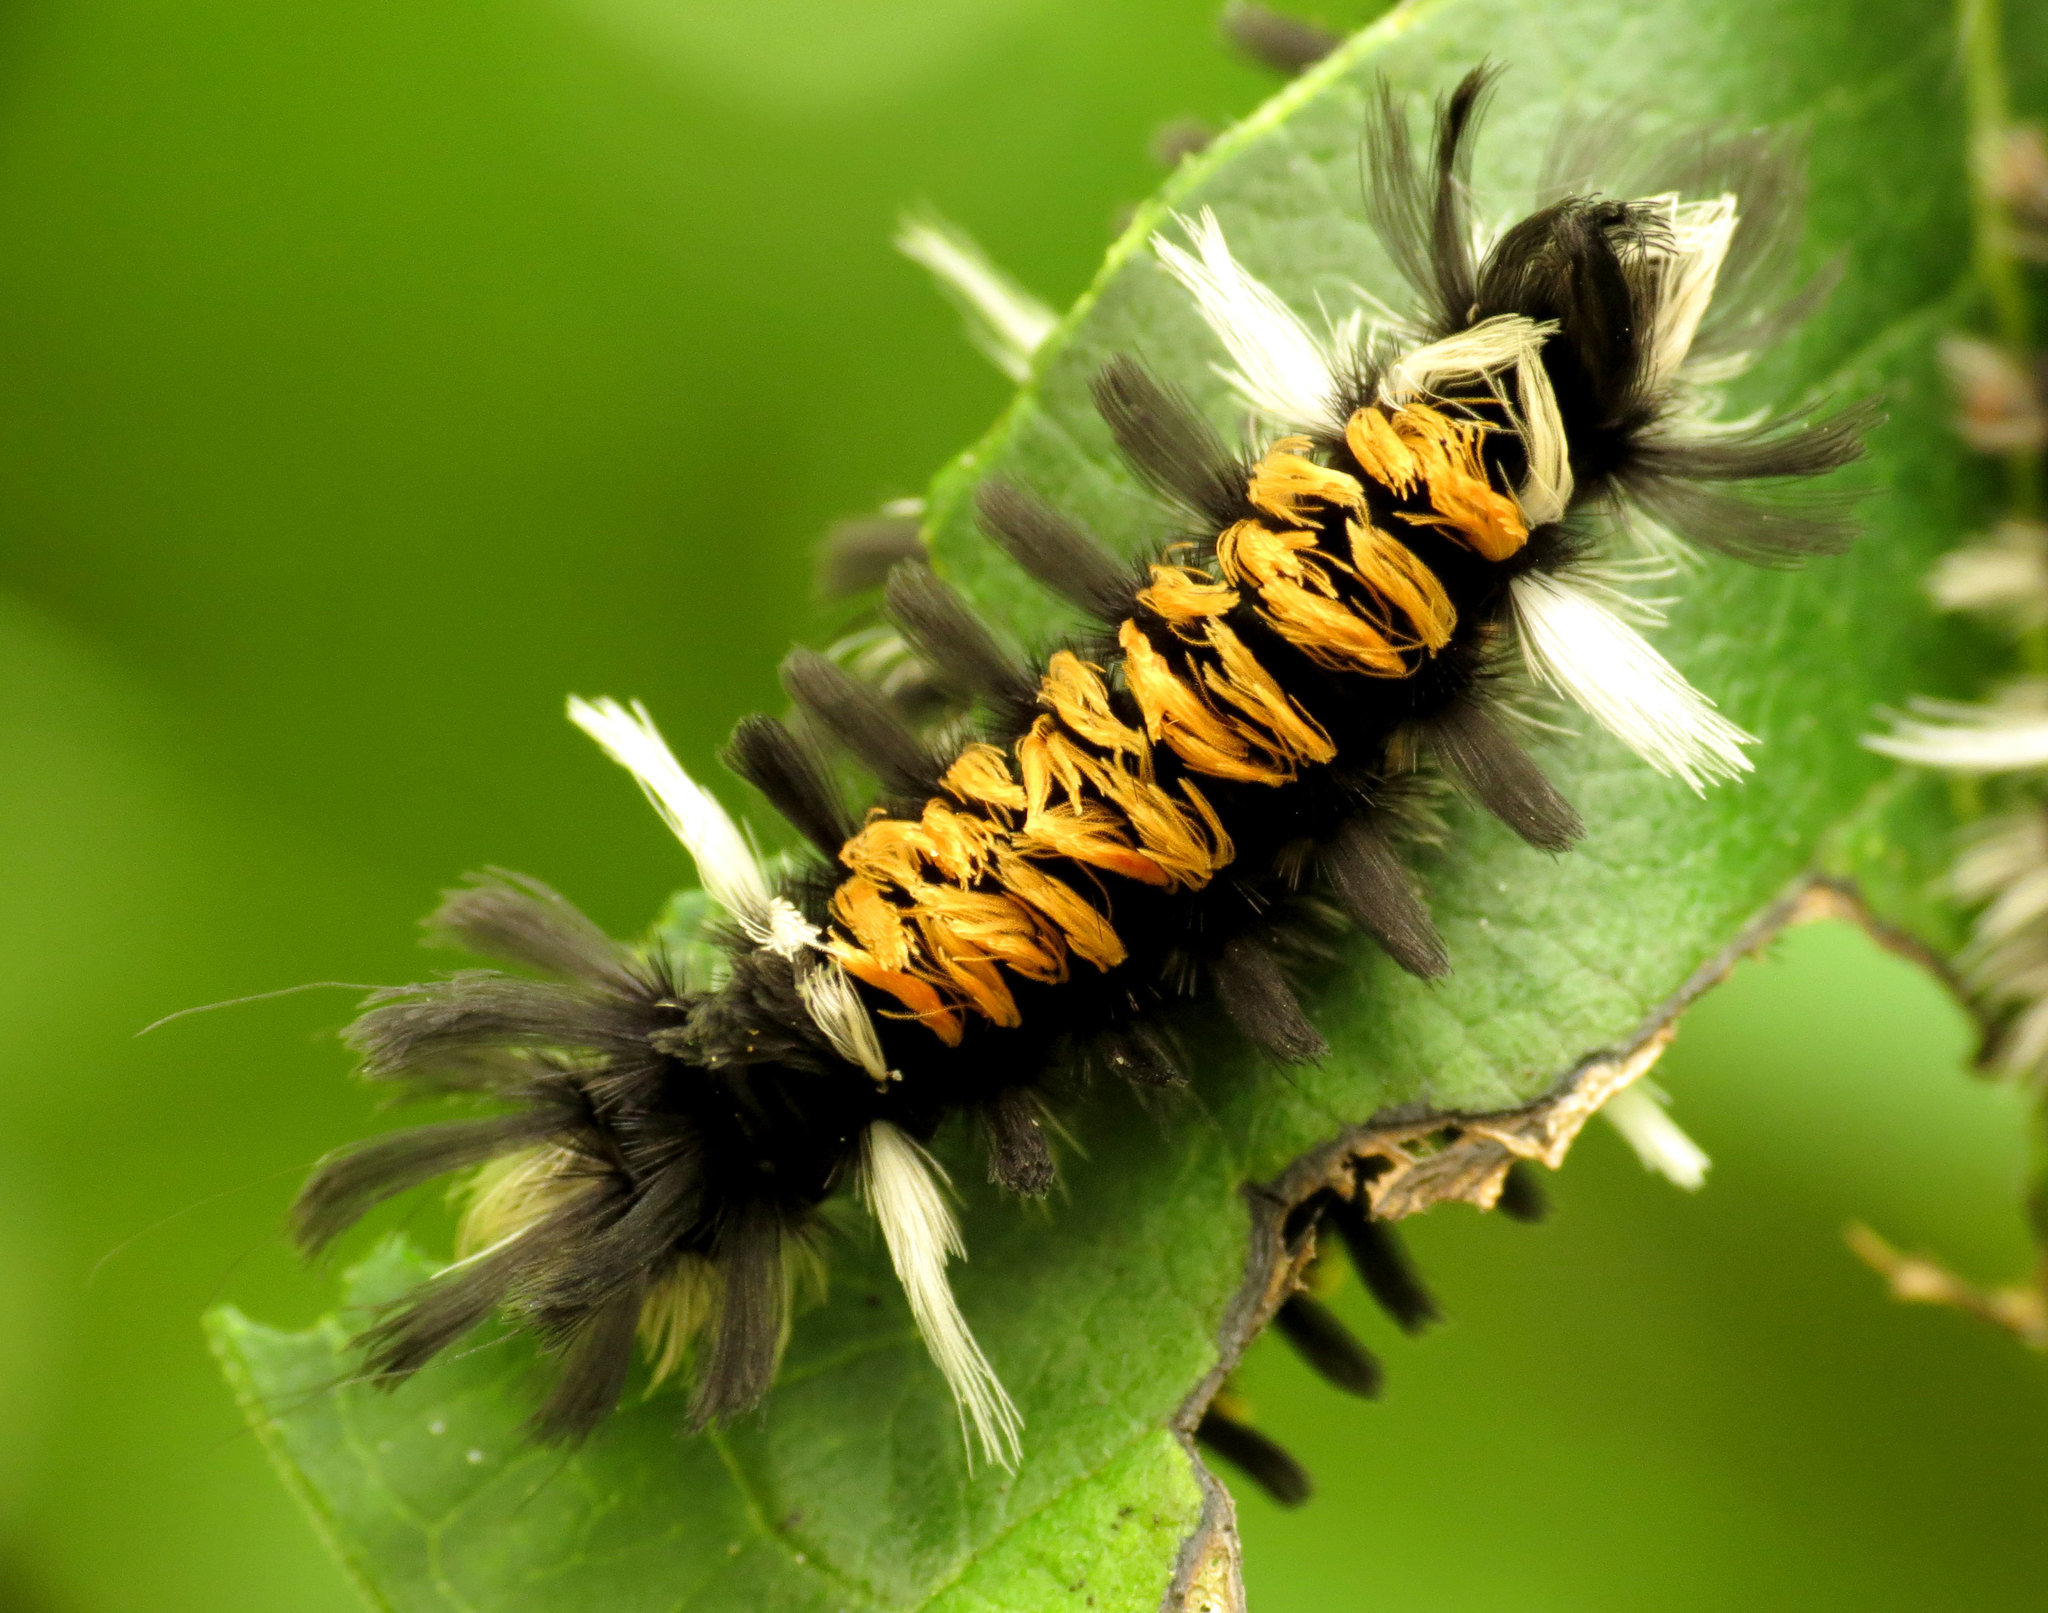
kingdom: Animalia
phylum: Arthropoda
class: Insecta
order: Lepidoptera
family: Erebidae
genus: Euchaetes
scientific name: Euchaetes egle
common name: Milkweed tussock moth
